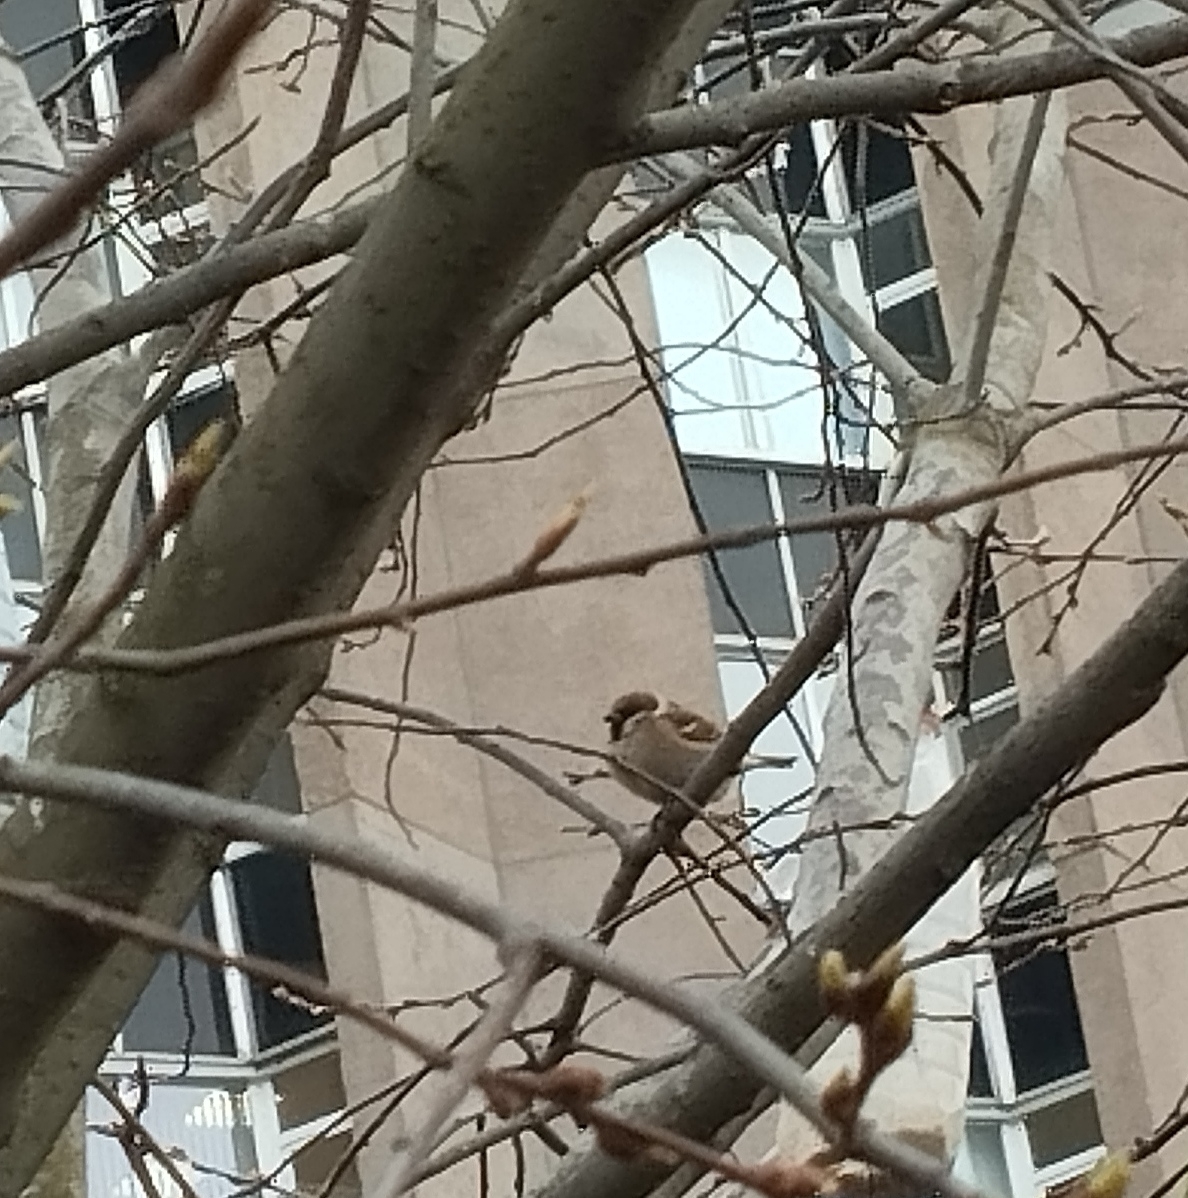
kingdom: Animalia
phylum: Chordata
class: Aves
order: Passeriformes
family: Passeridae
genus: Passer
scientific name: Passer montanus
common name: Eurasian tree sparrow
